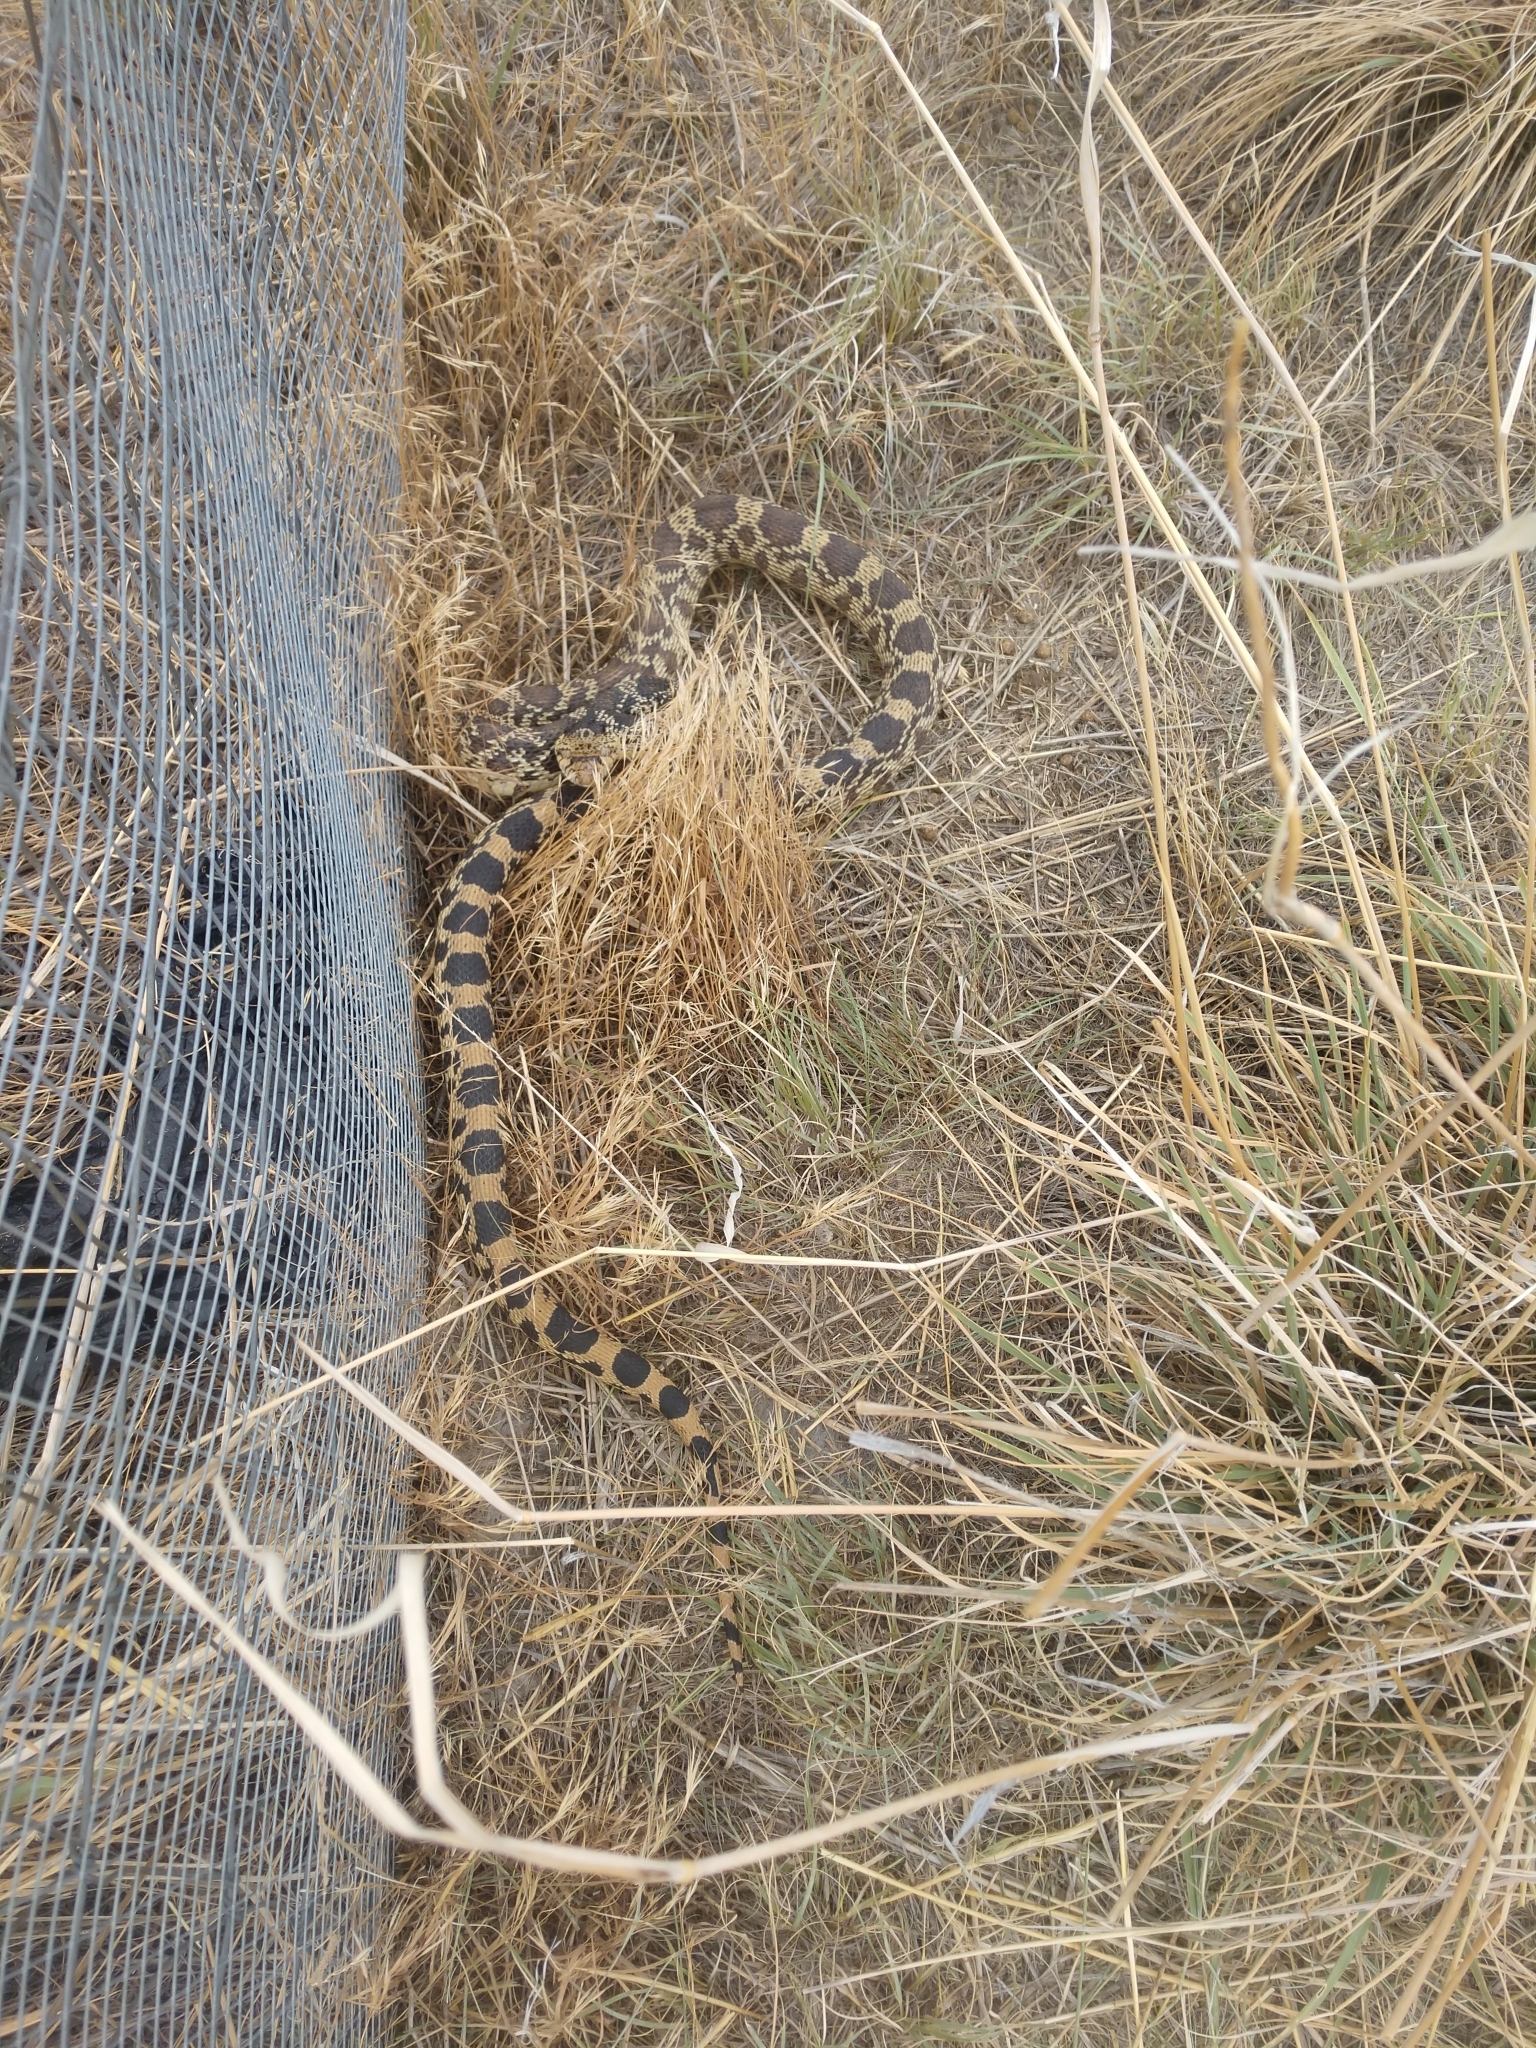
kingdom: Animalia
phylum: Chordata
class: Squamata
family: Colubridae
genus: Pituophis
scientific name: Pituophis catenifer
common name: Gopher snake
